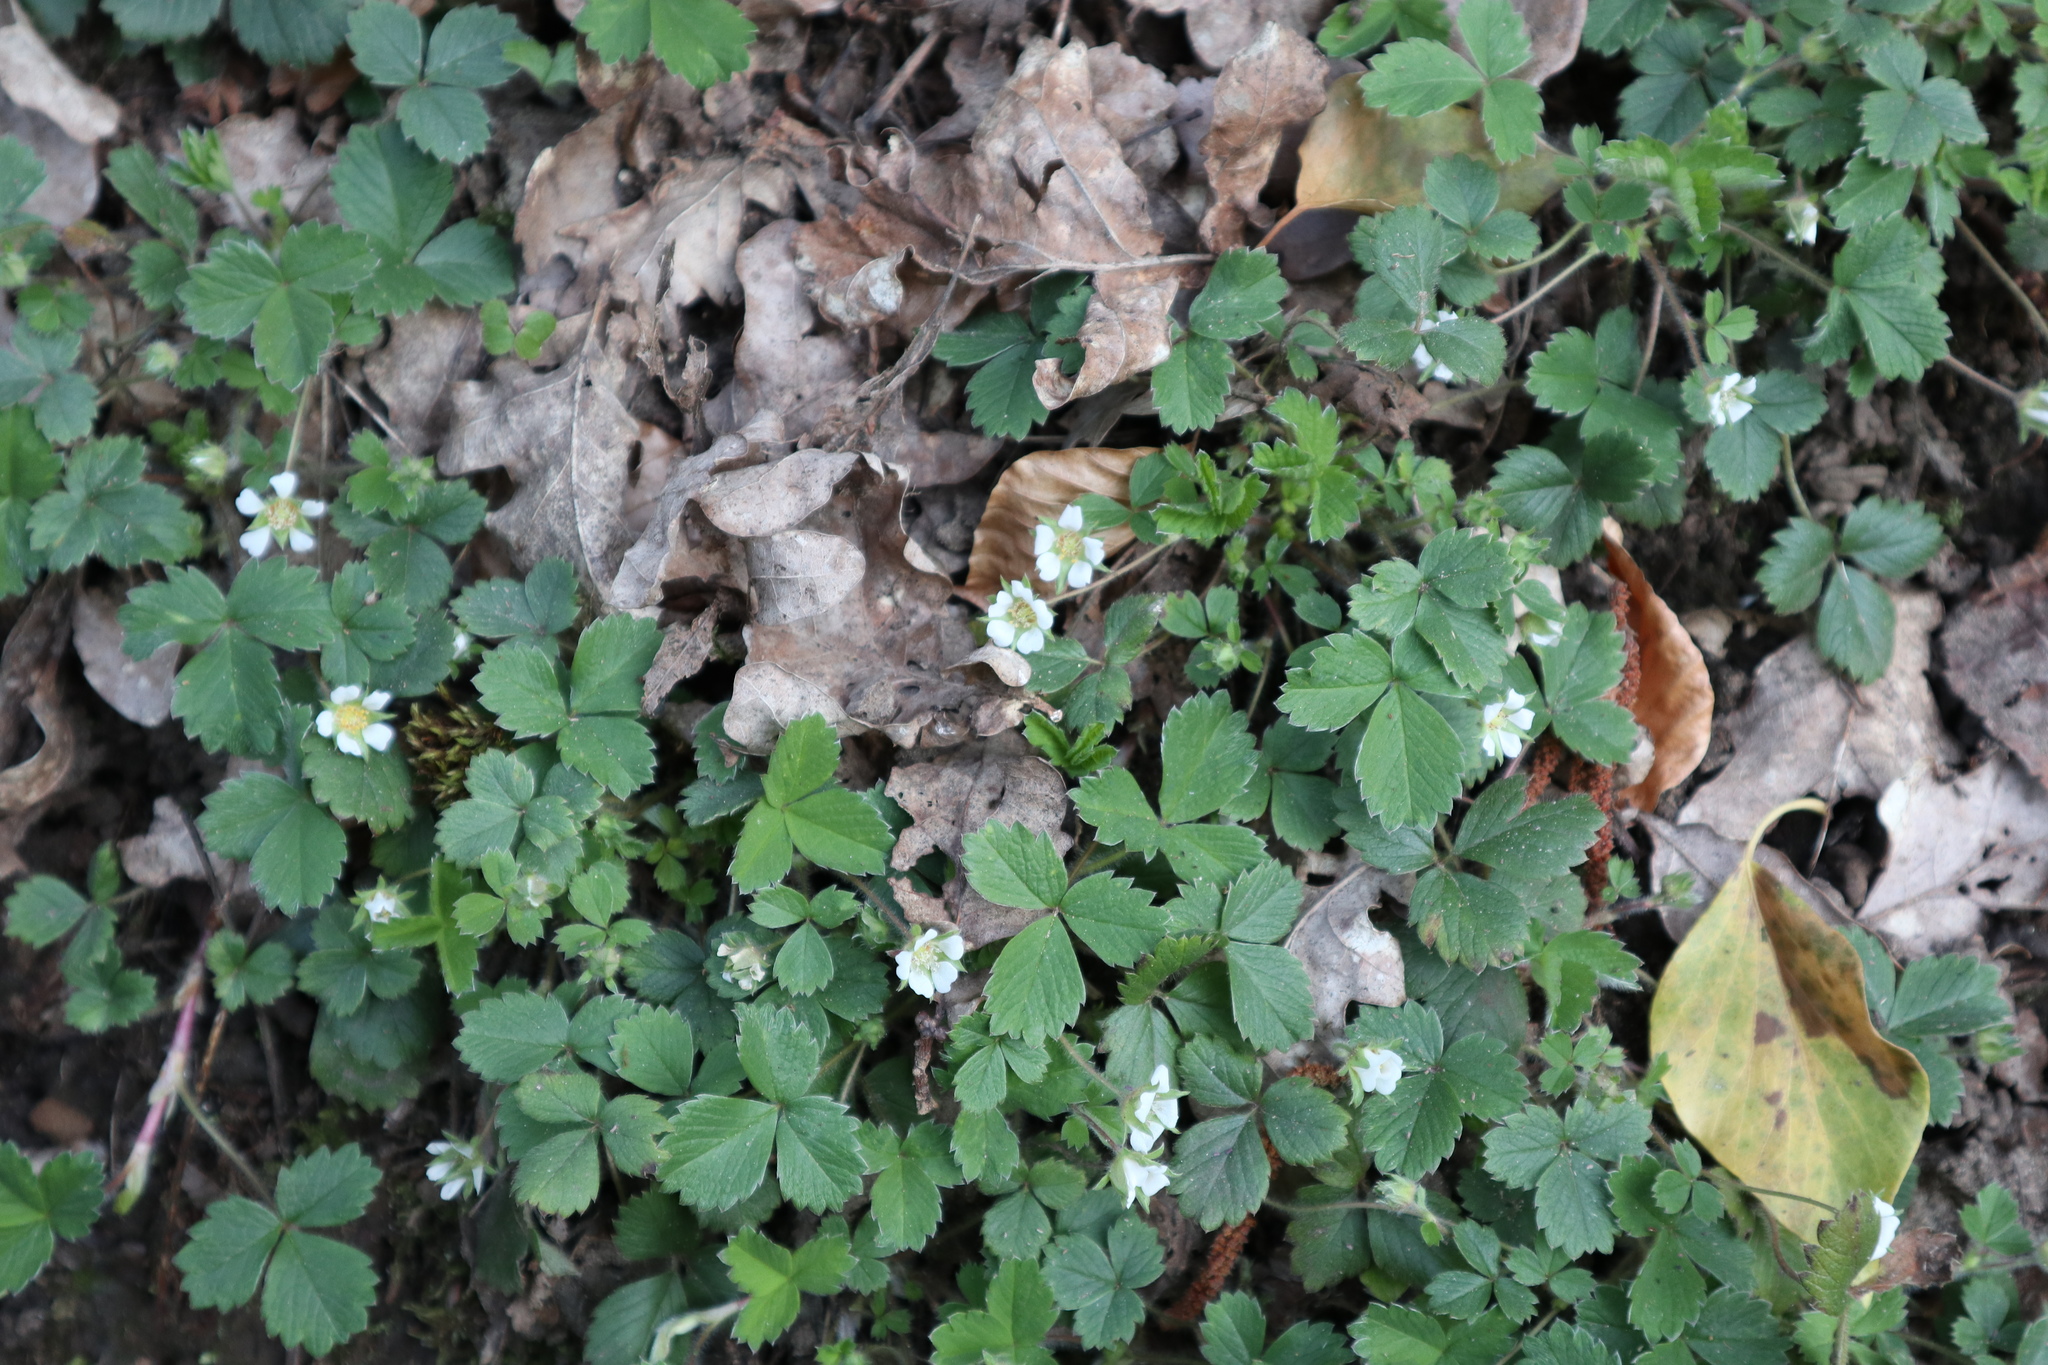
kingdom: Plantae
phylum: Tracheophyta
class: Magnoliopsida
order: Rosales
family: Rosaceae
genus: Potentilla
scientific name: Potentilla sterilis
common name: Barren strawberry
